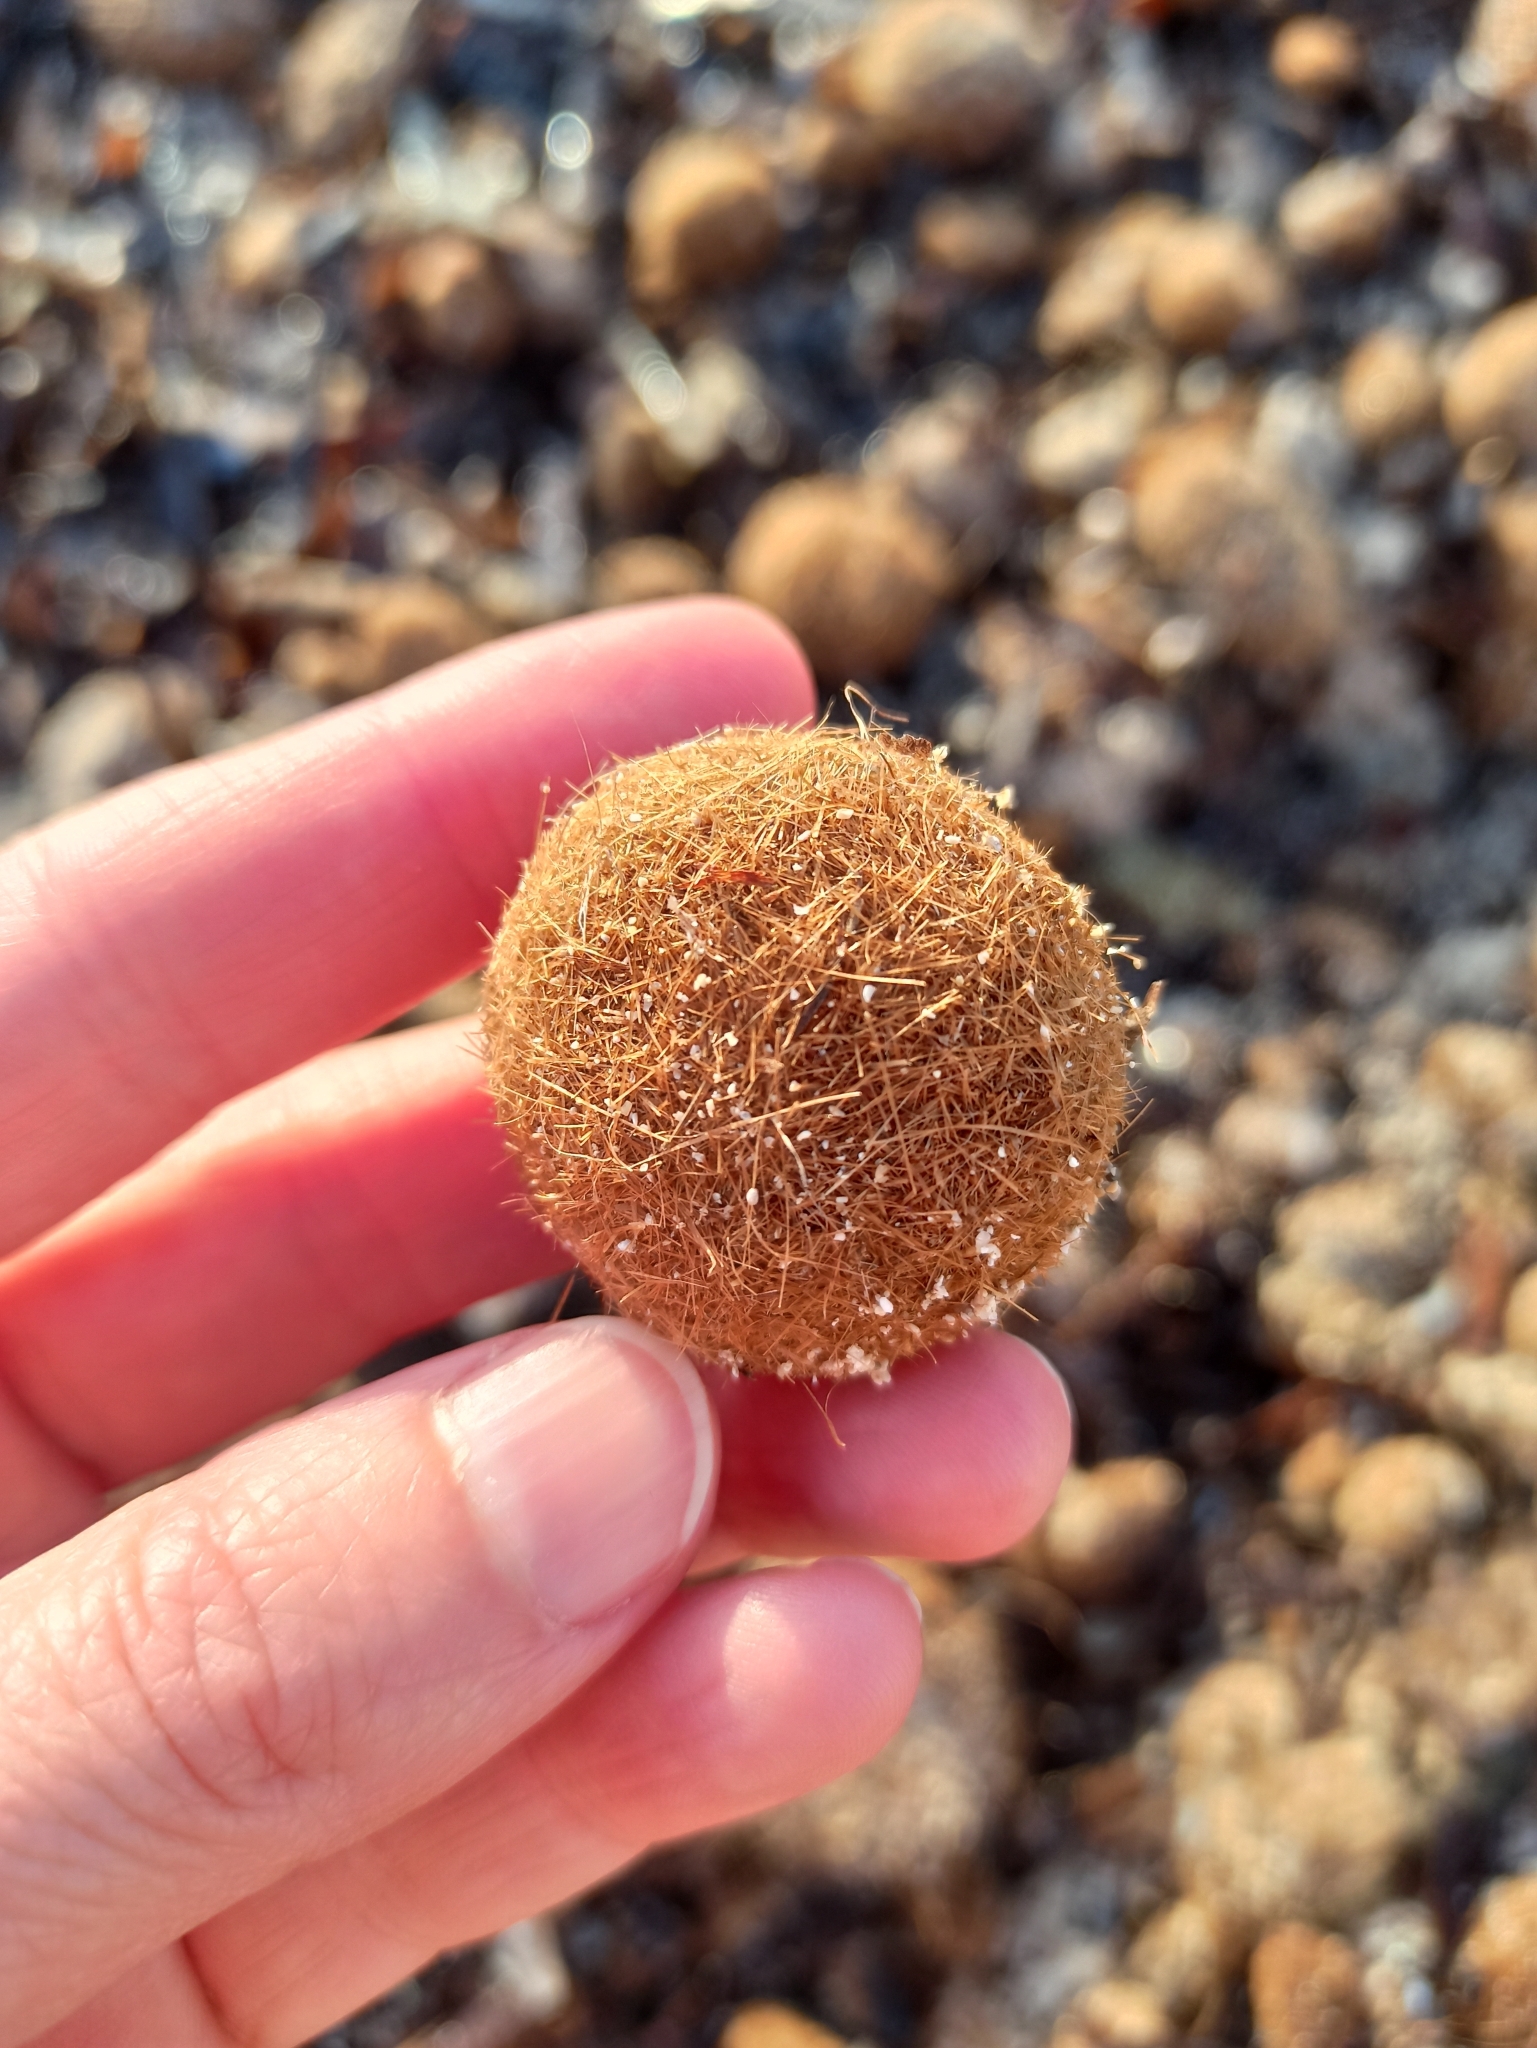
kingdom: Plantae
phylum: Tracheophyta
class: Liliopsida
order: Alismatales
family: Posidoniaceae
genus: Posidonia
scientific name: Posidonia oceanica
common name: Mediterranean tapeweed
